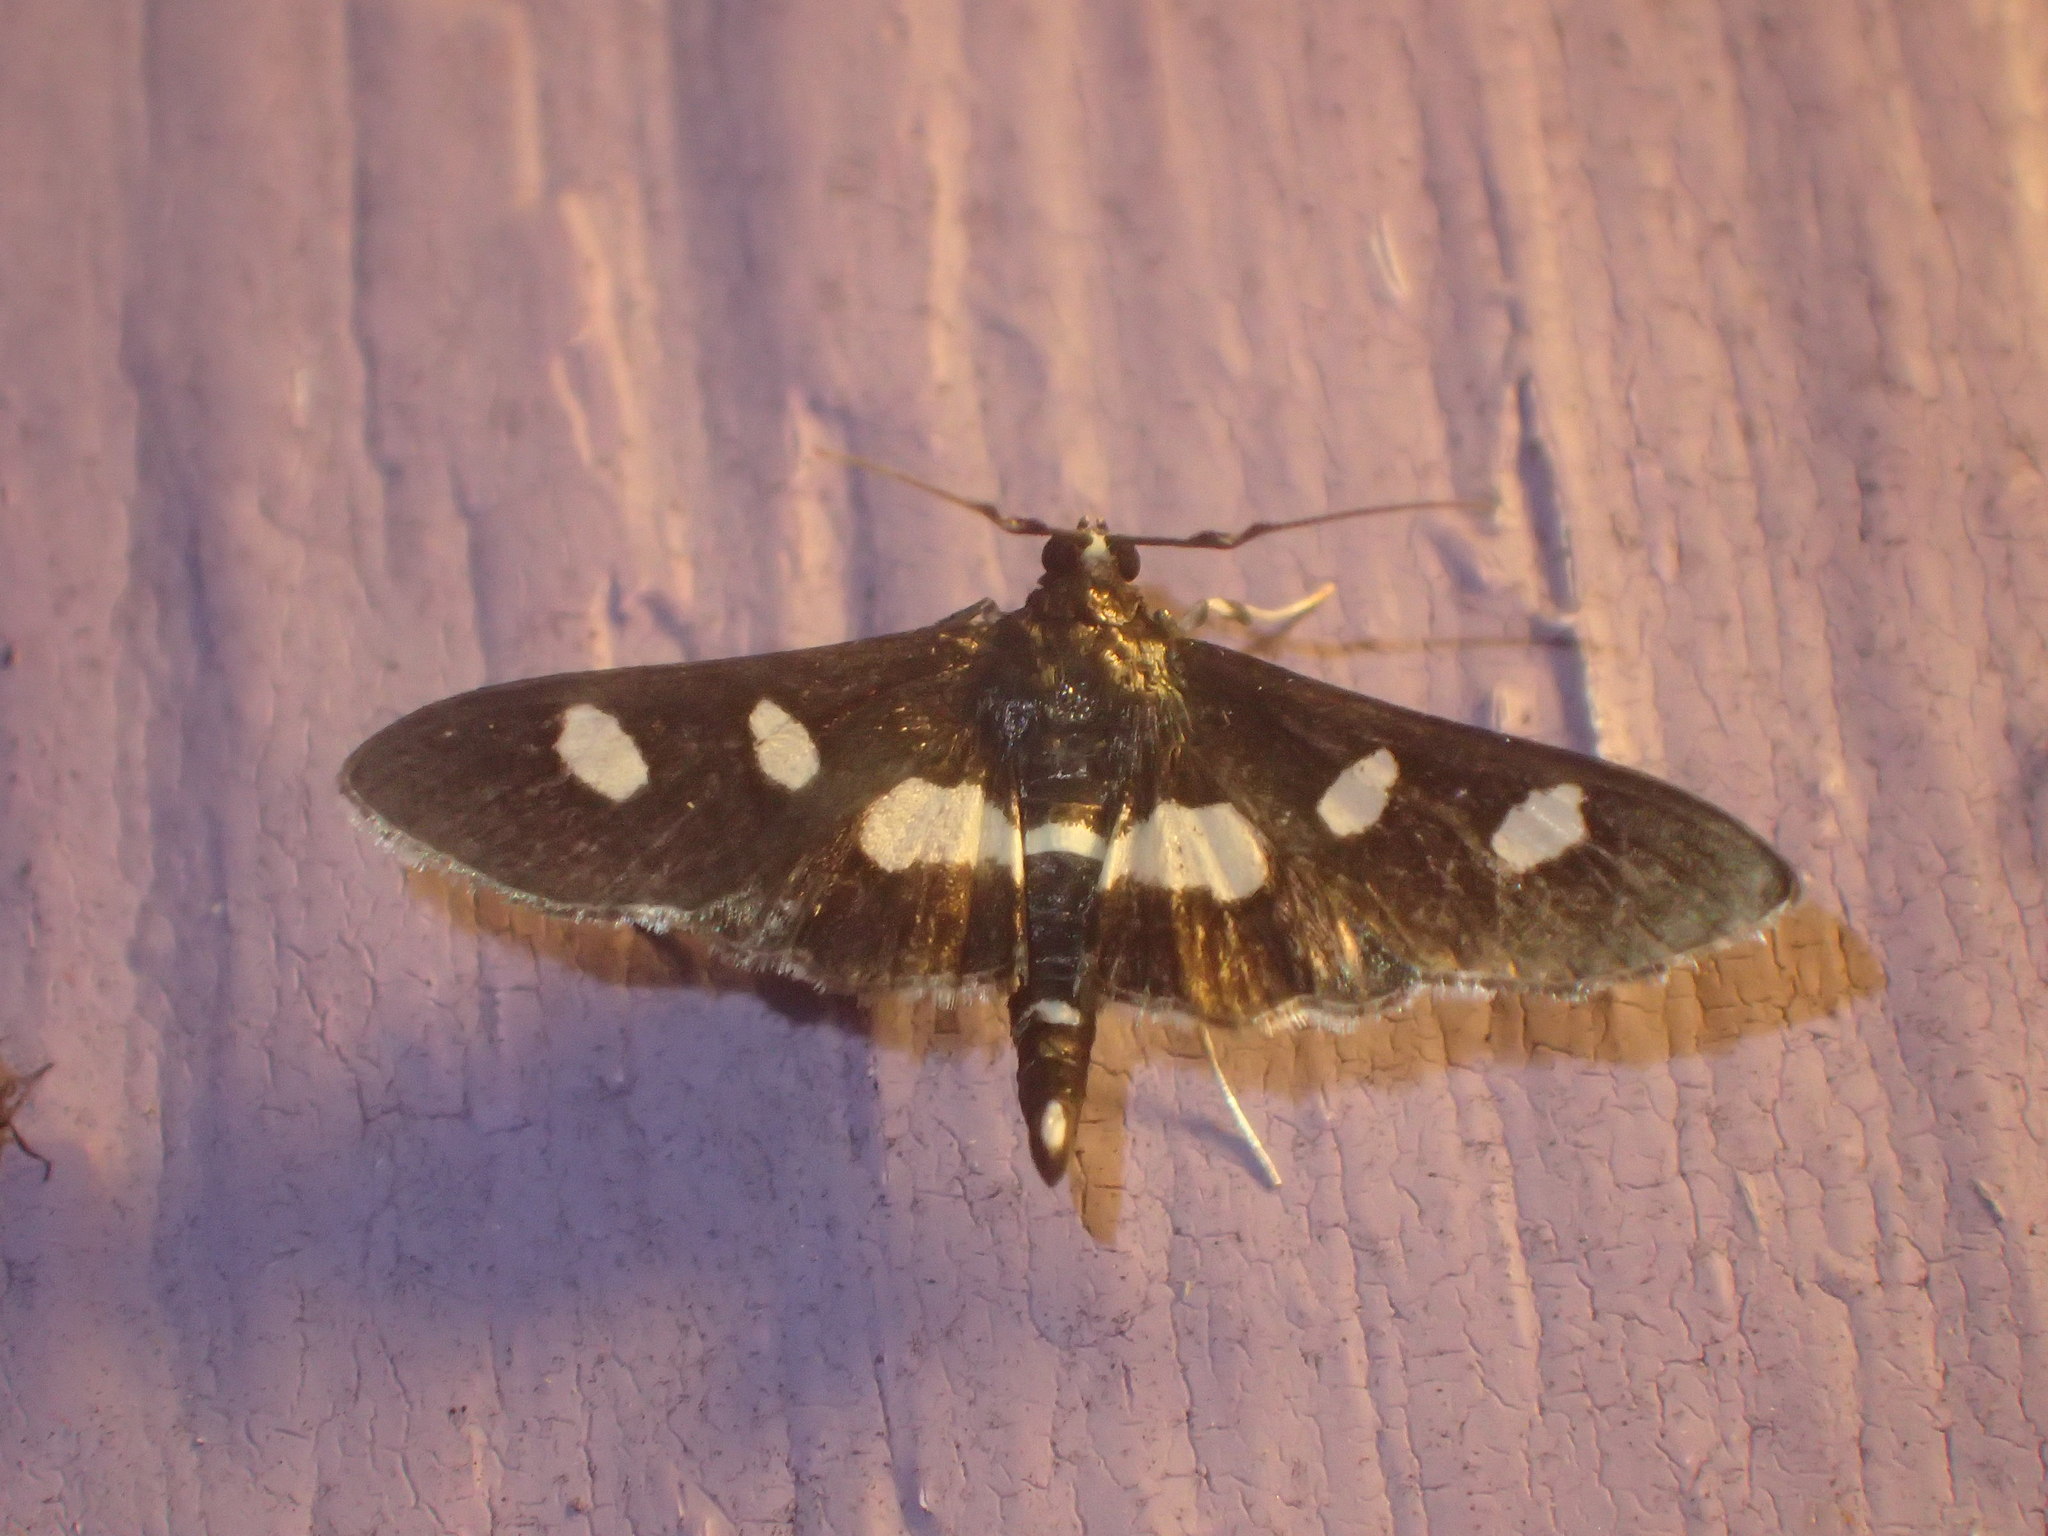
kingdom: Animalia
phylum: Arthropoda
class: Insecta
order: Lepidoptera
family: Crambidae
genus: Desmia
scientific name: Desmia
